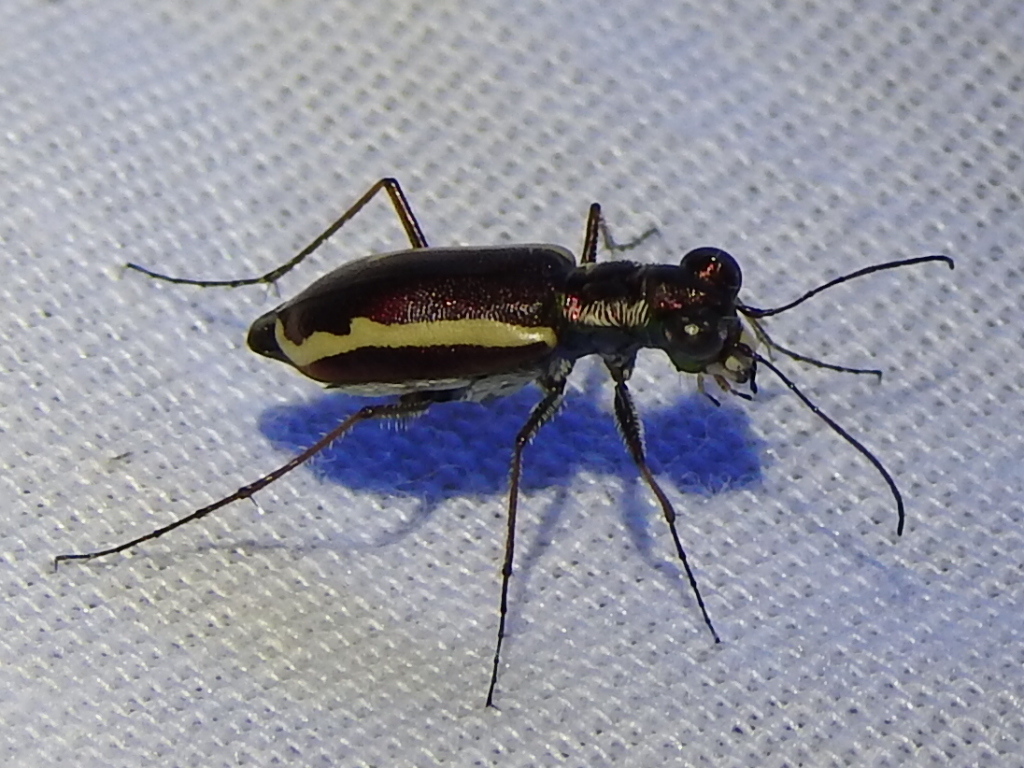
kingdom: Animalia
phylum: Arthropoda
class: Insecta
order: Coleoptera
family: Carabidae
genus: Cylindera
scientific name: Cylindera lemniscata
